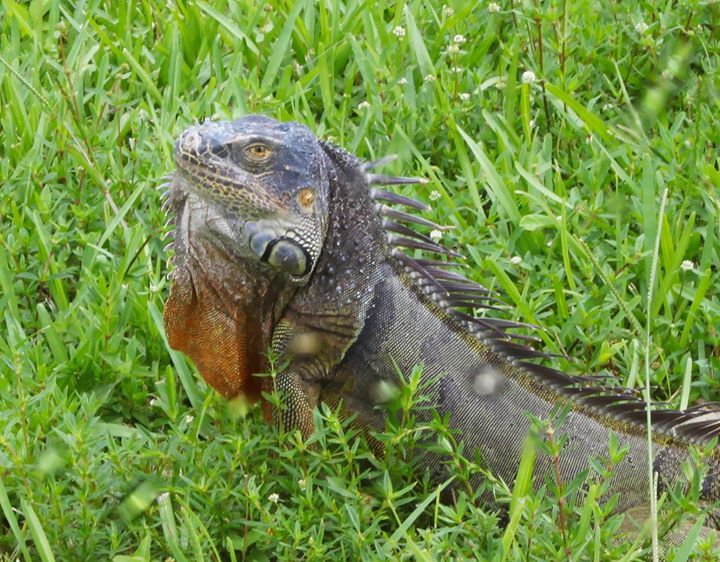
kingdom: Animalia
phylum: Chordata
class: Squamata
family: Iguanidae
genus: Iguana
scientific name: Iguana iguana
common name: Green iguana
